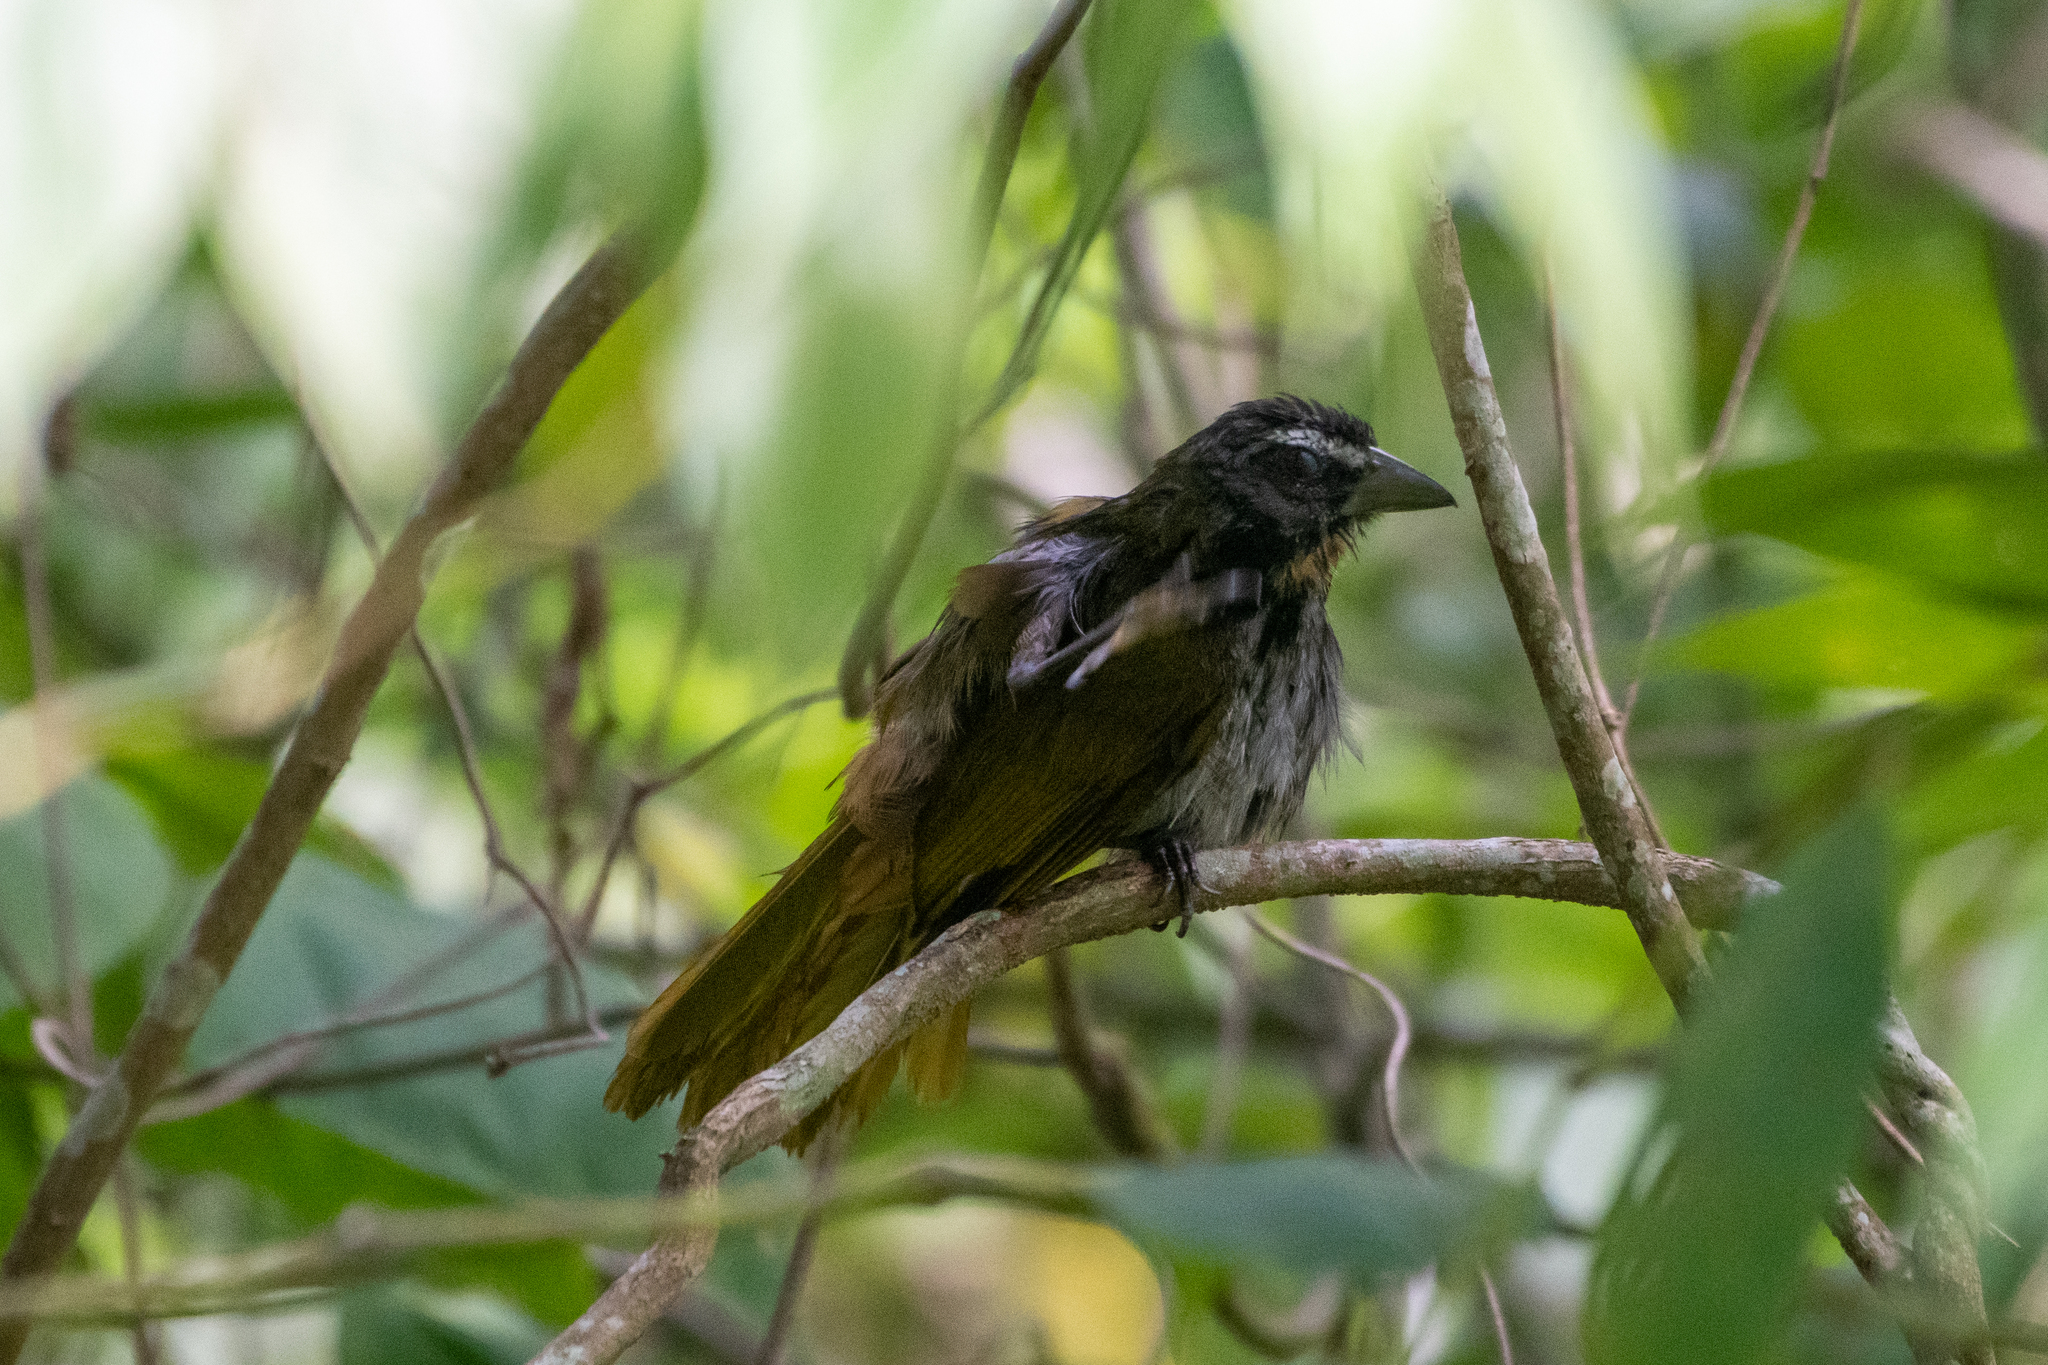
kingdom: Animalia
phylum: Chordata
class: Aves
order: Passeriformes
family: Thraupidae
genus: Saltator
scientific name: Saltator maximus
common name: Buff-throated saltator
